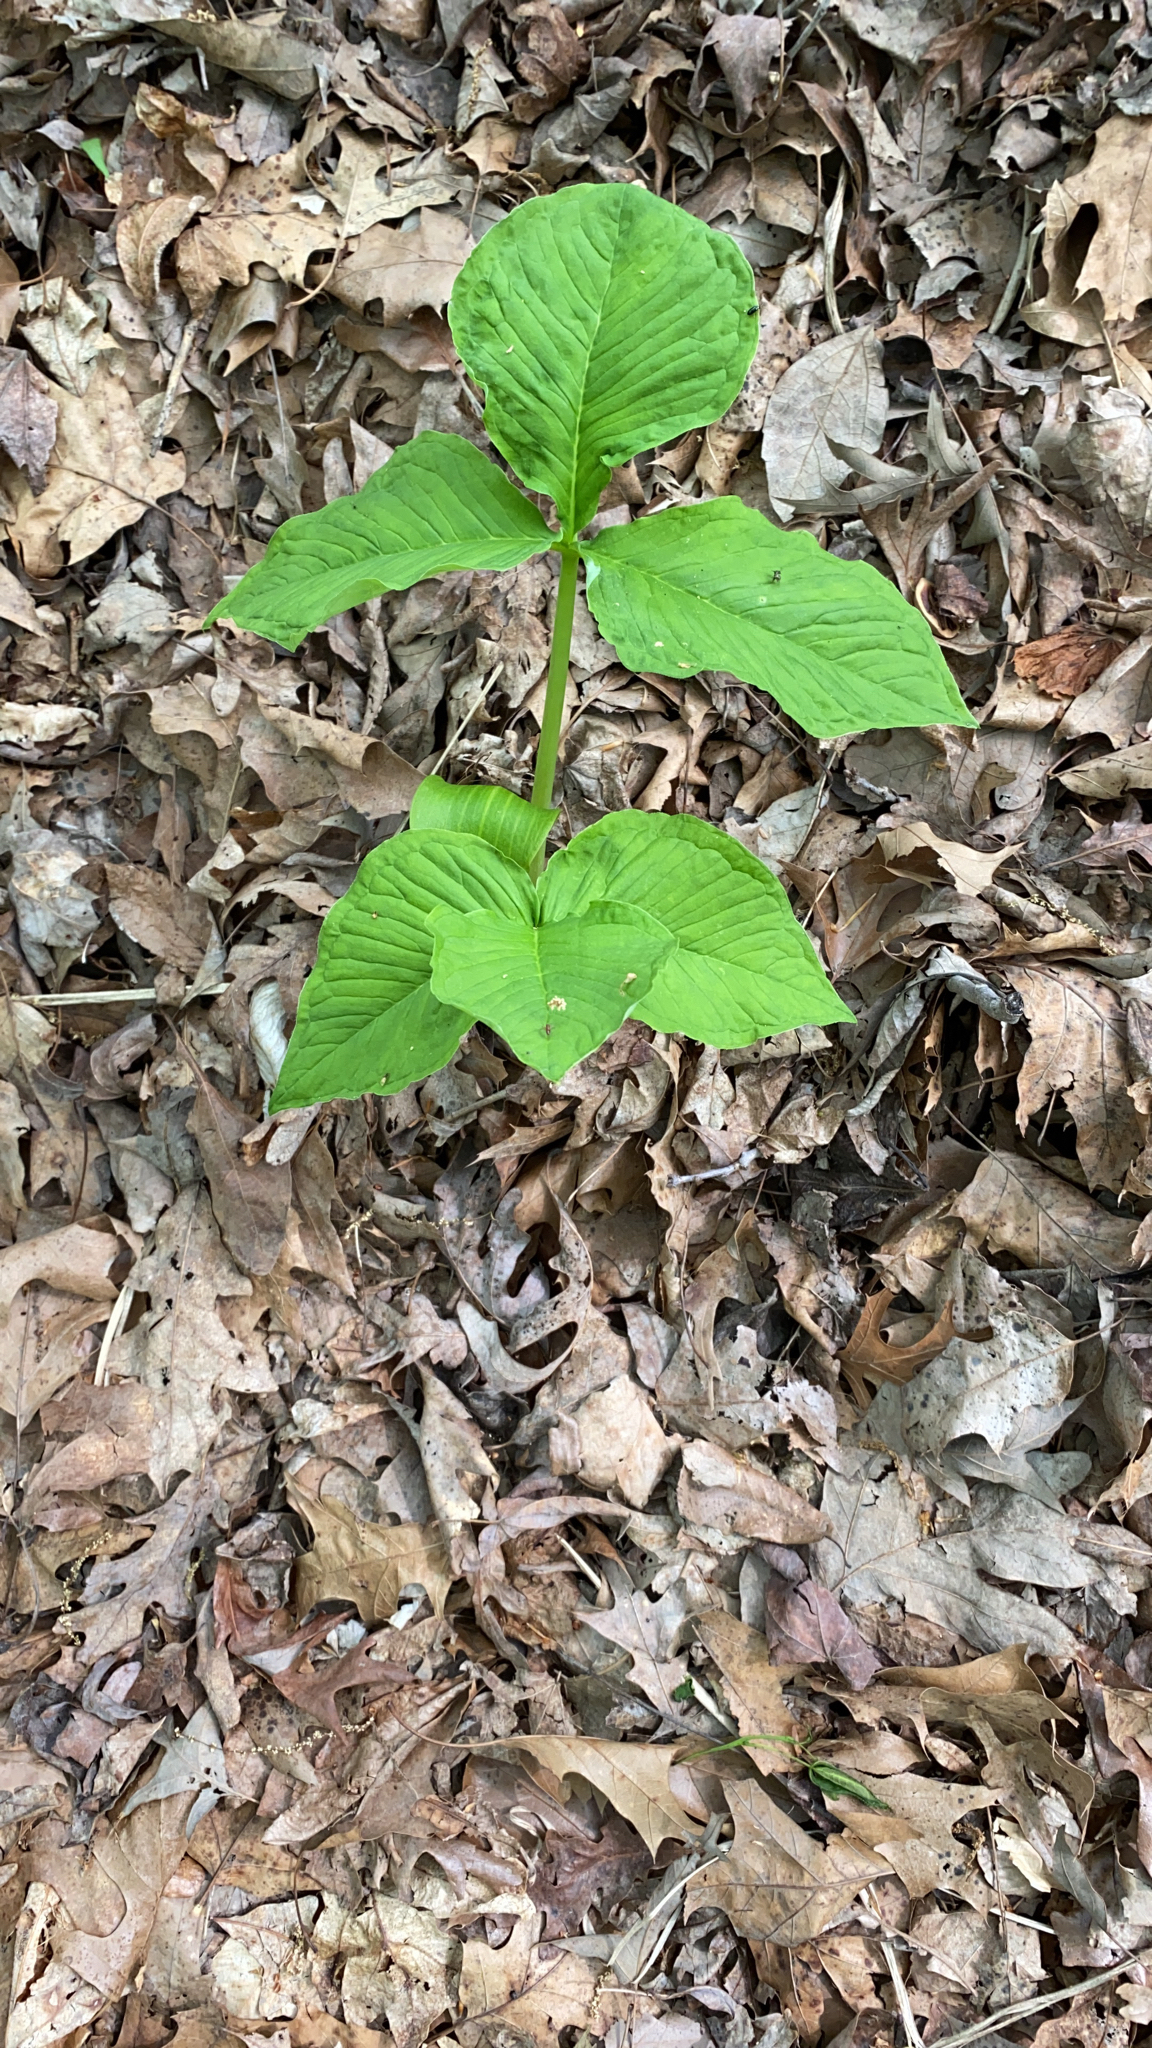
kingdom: Plantae
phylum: Tracheophyta
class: Liliopsida
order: Alismatales
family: Araceae
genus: Arisaema
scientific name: Arisaema triphyllum
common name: Jack-in-the-pulpit
